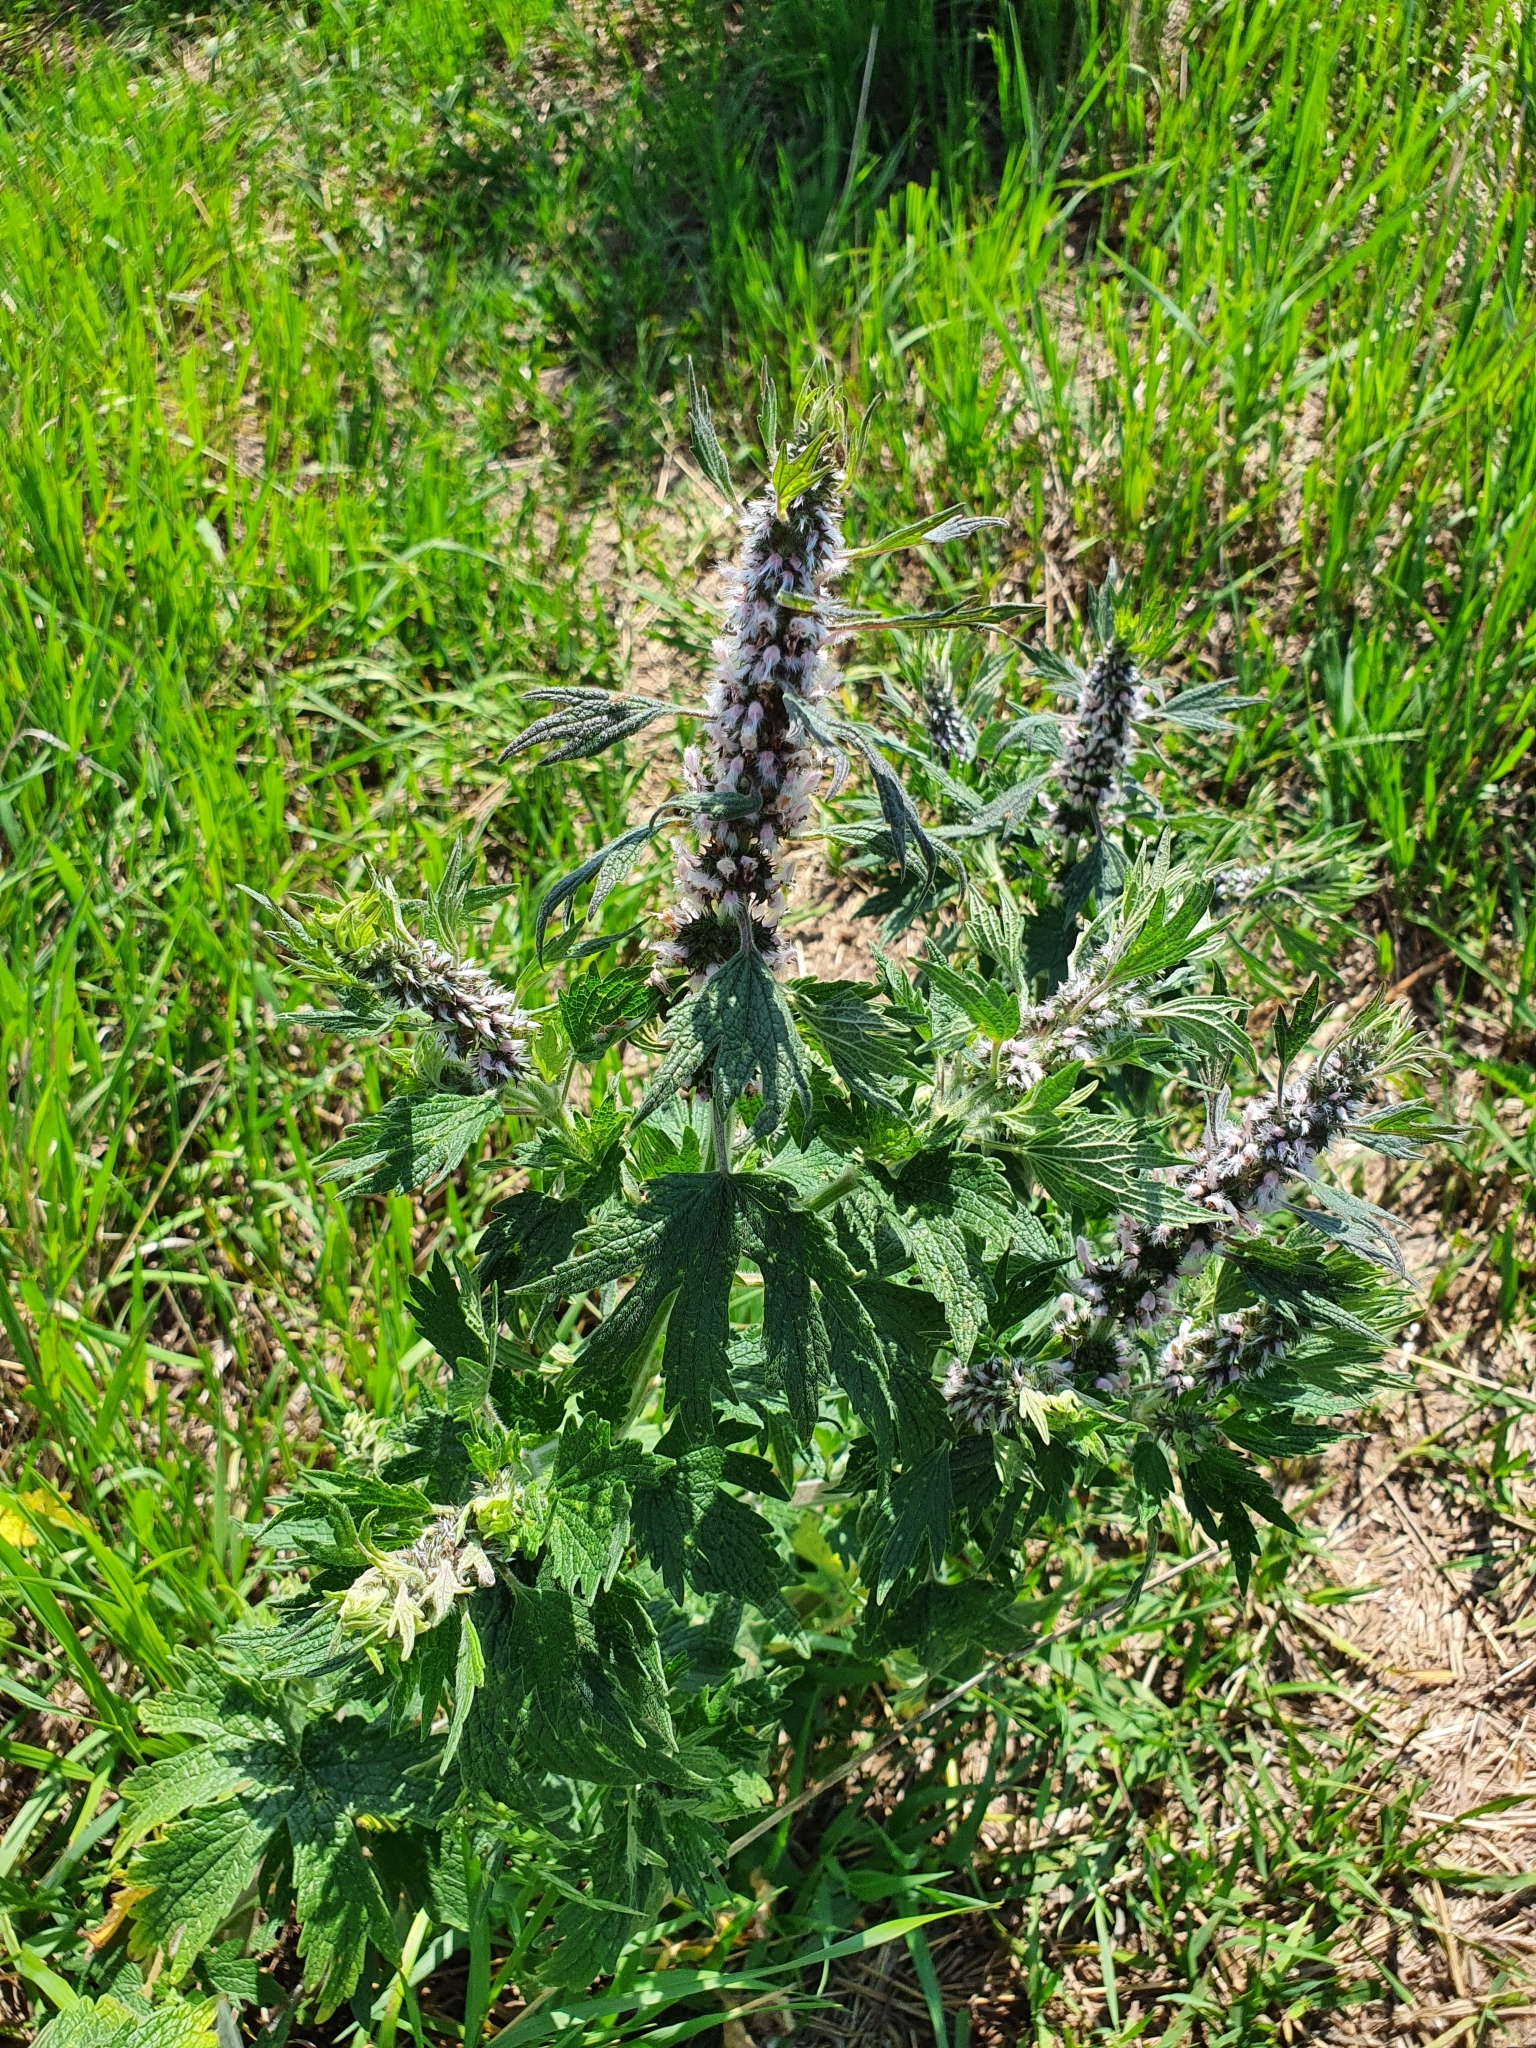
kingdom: Plantae
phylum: Tracheophyta
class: Magnoliopsida
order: Lamiales
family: Lamiaceae
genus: Leonurus
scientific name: Leonurus quinquelobatus
